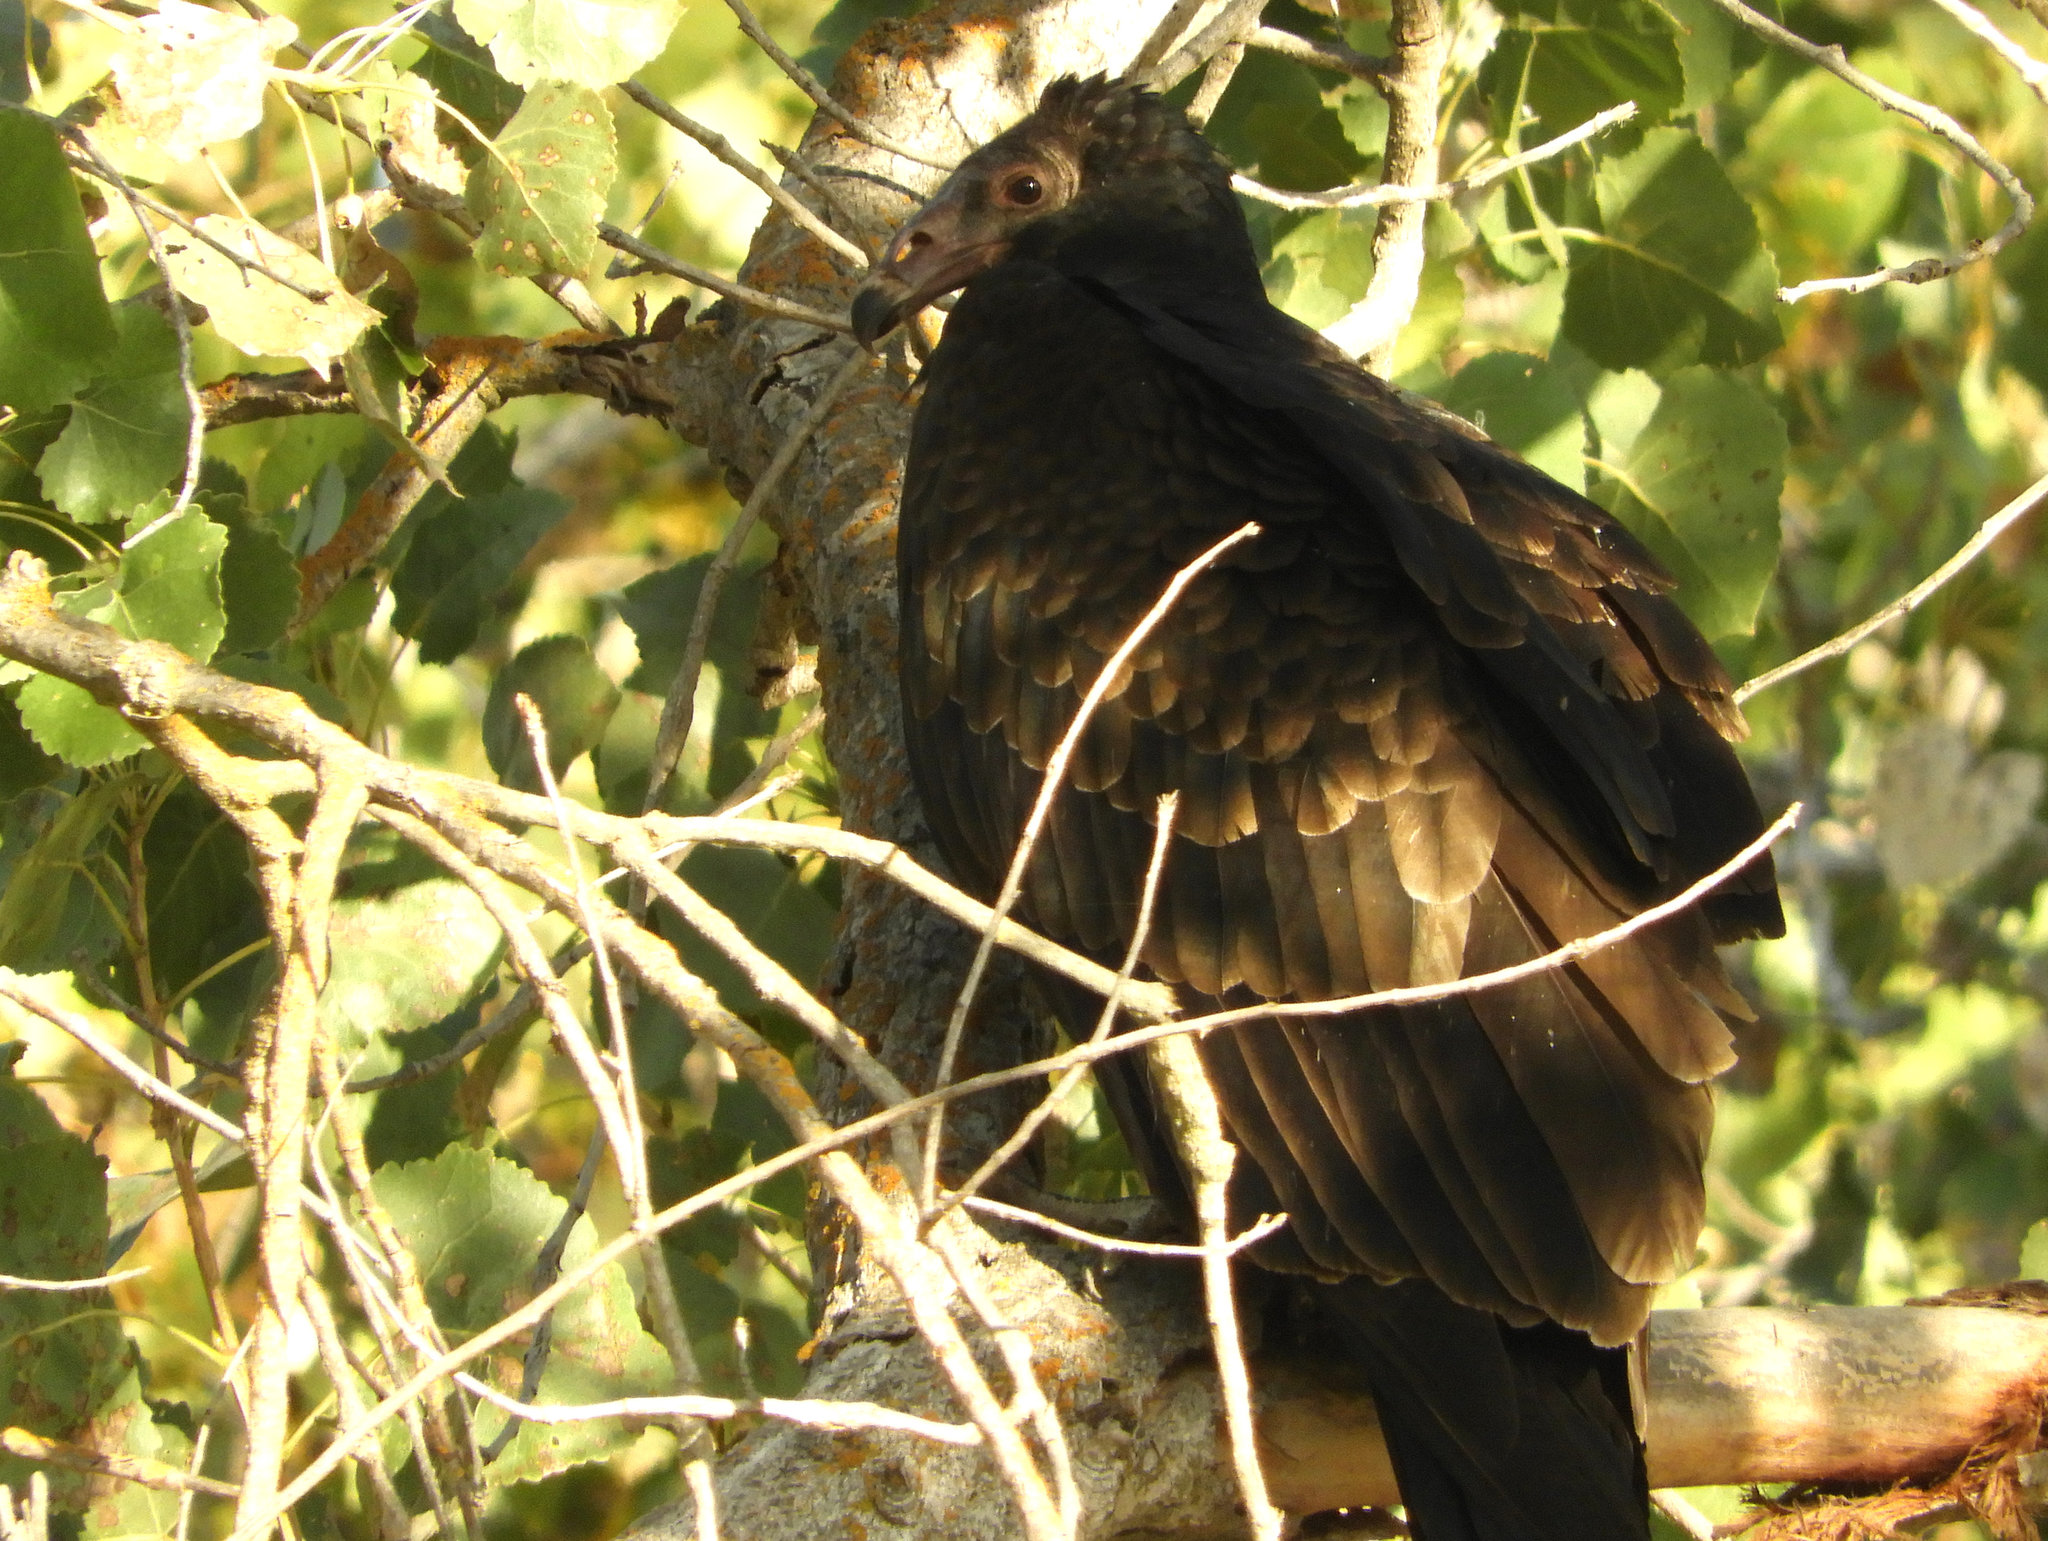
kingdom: Animalia
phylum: Chordata
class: Aves
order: Accipitriformes
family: Cathartidae
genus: Cathartes
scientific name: Cathartes aura
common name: Turkey vulture
